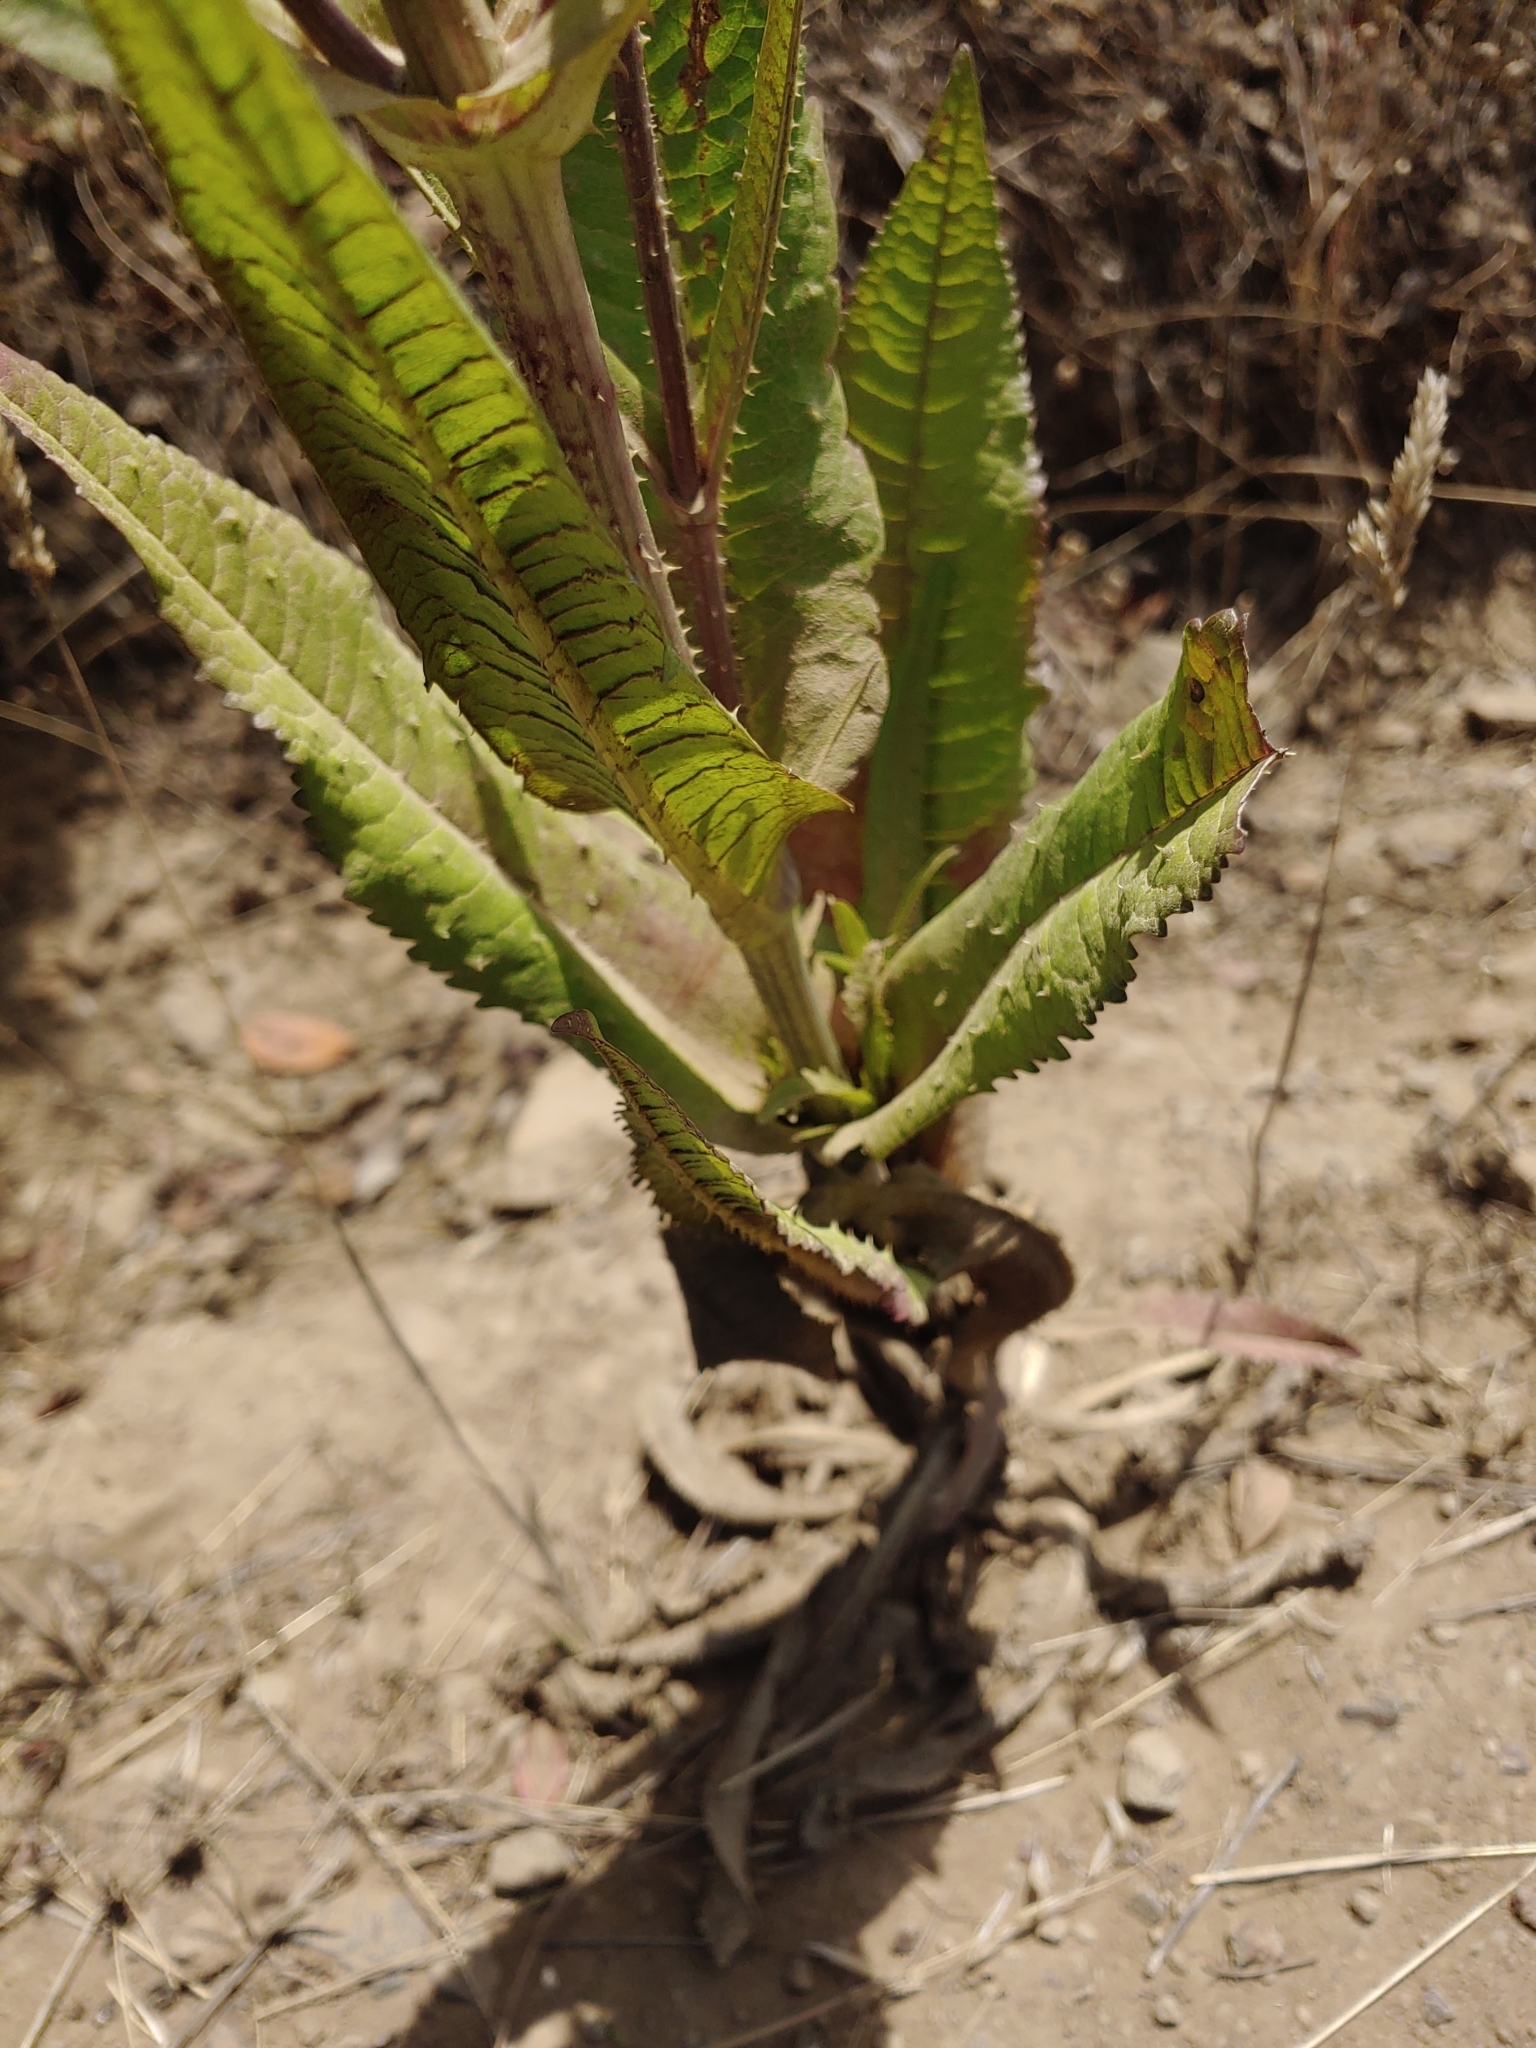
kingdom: Plantae
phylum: Tracheophyta
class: Magnoliopsida
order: Dipsacales
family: Caprifoliaceae
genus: Dipsacus
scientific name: Dipsacus fullonum
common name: Teasel
